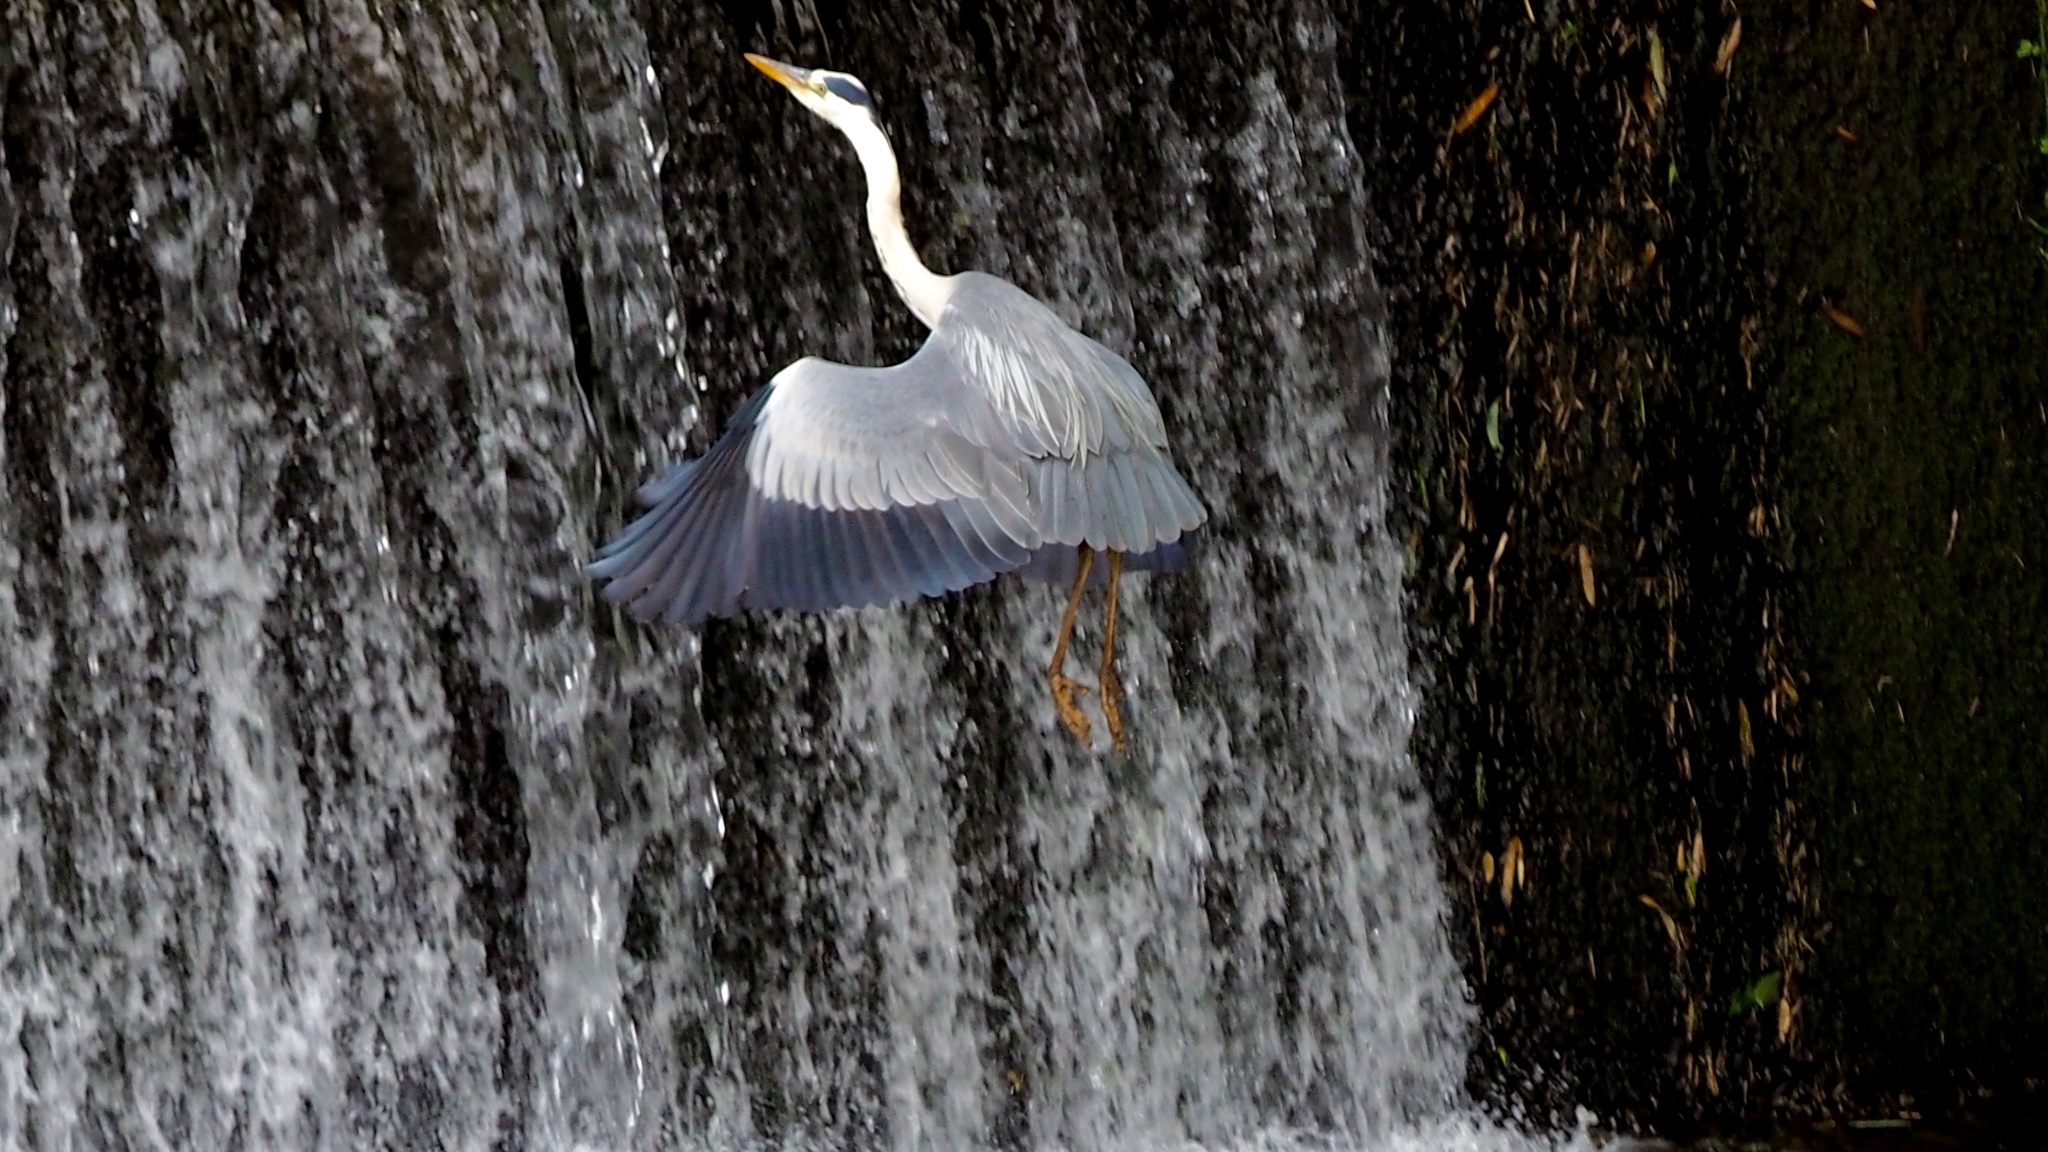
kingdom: Animalia
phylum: Chordata
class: Aves
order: Pelecaniformes
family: Ardeidae
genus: Ardea
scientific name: Ardea cinerea
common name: Grey heron
